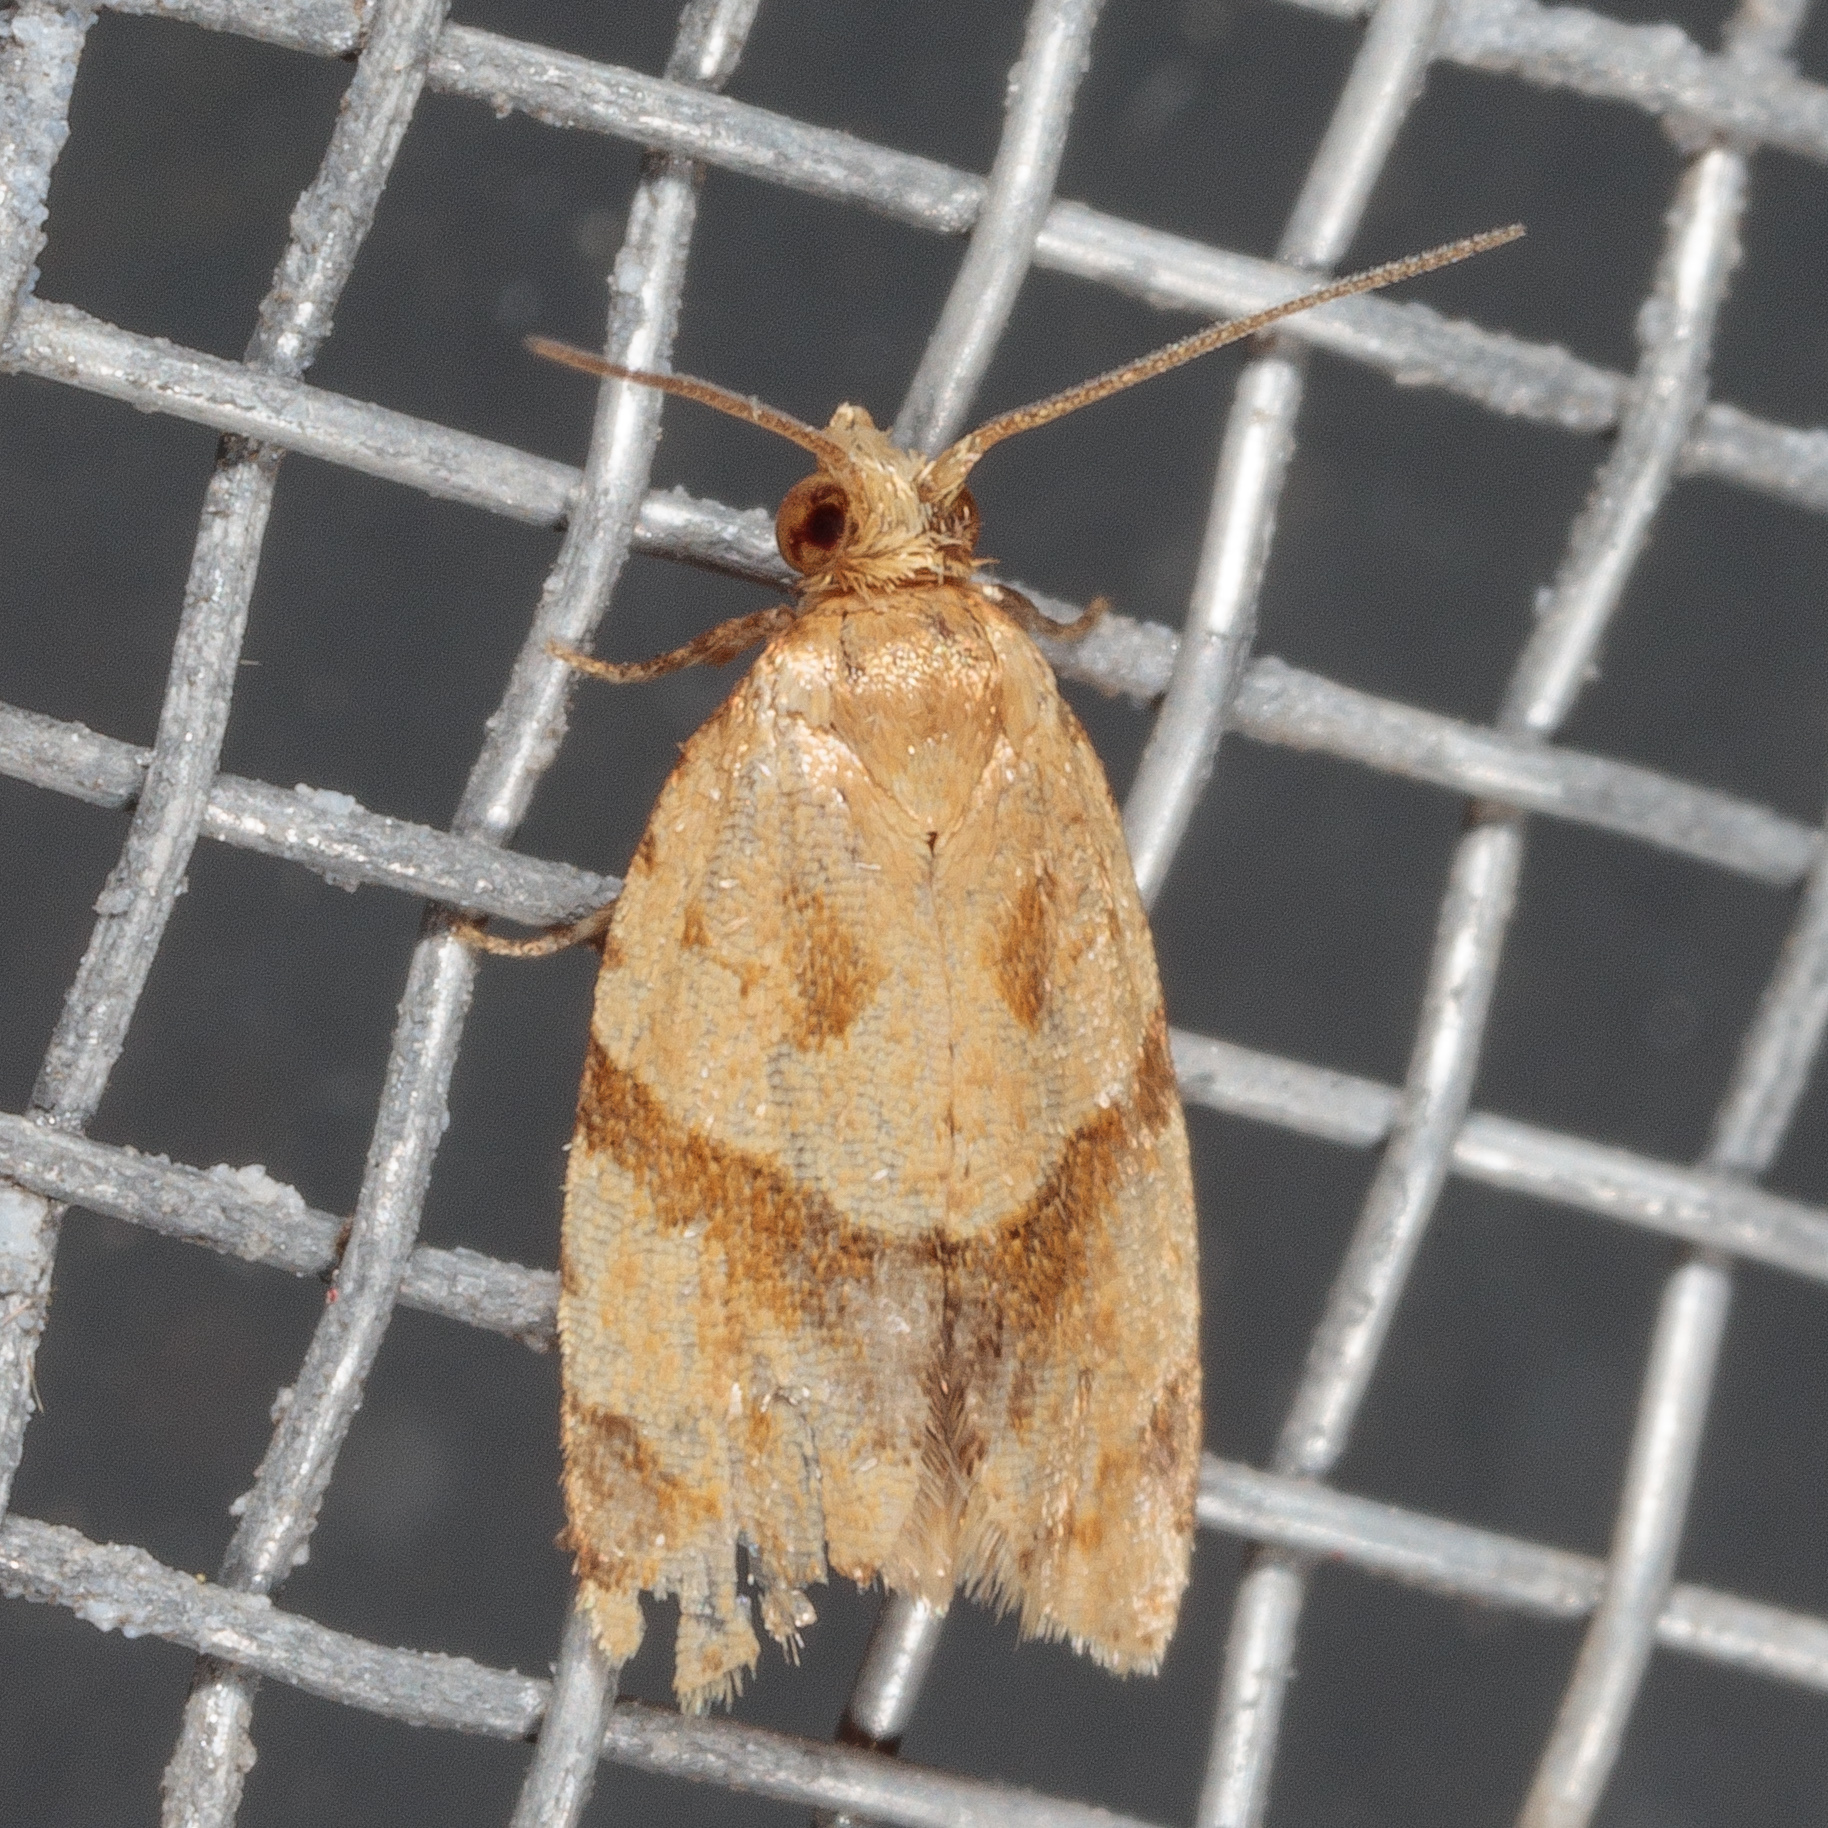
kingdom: Animalia
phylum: Arthropoda
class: Insecta
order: Lepidoptera
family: Tortricidae
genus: Clepsis
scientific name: Clepsis peritana
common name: Garden tortrix
